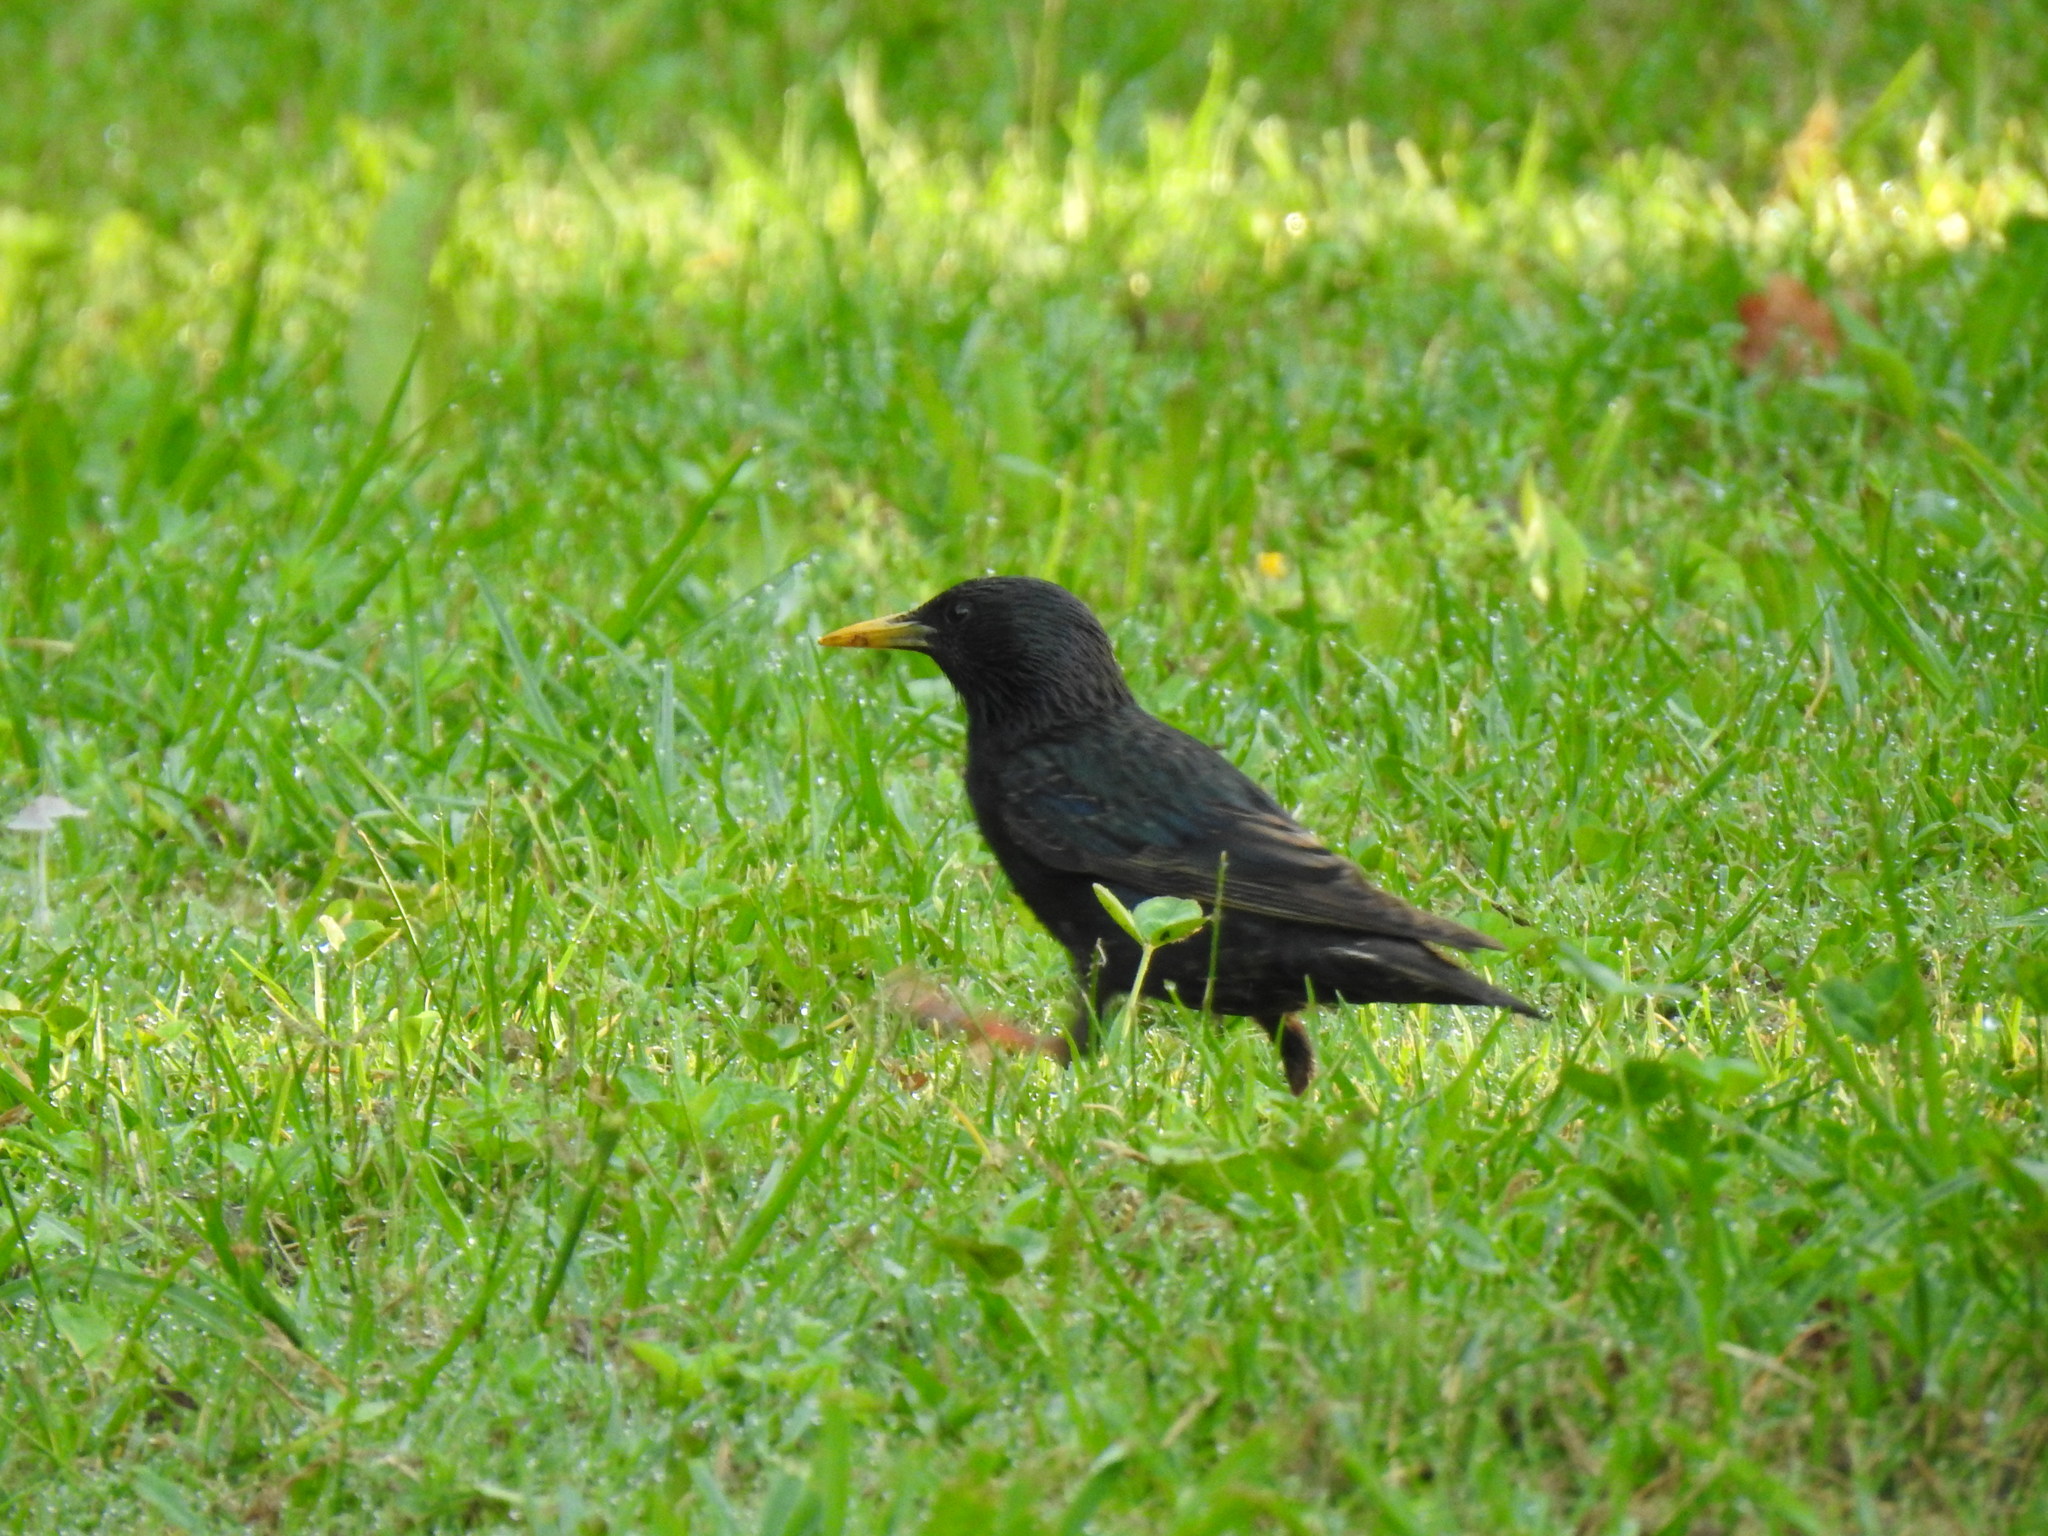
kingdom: Animalia
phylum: Chordata
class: Aves
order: Passeriformes
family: Sturnidae
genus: Sturnus
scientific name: Sturnus vulgaris
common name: Common starling
